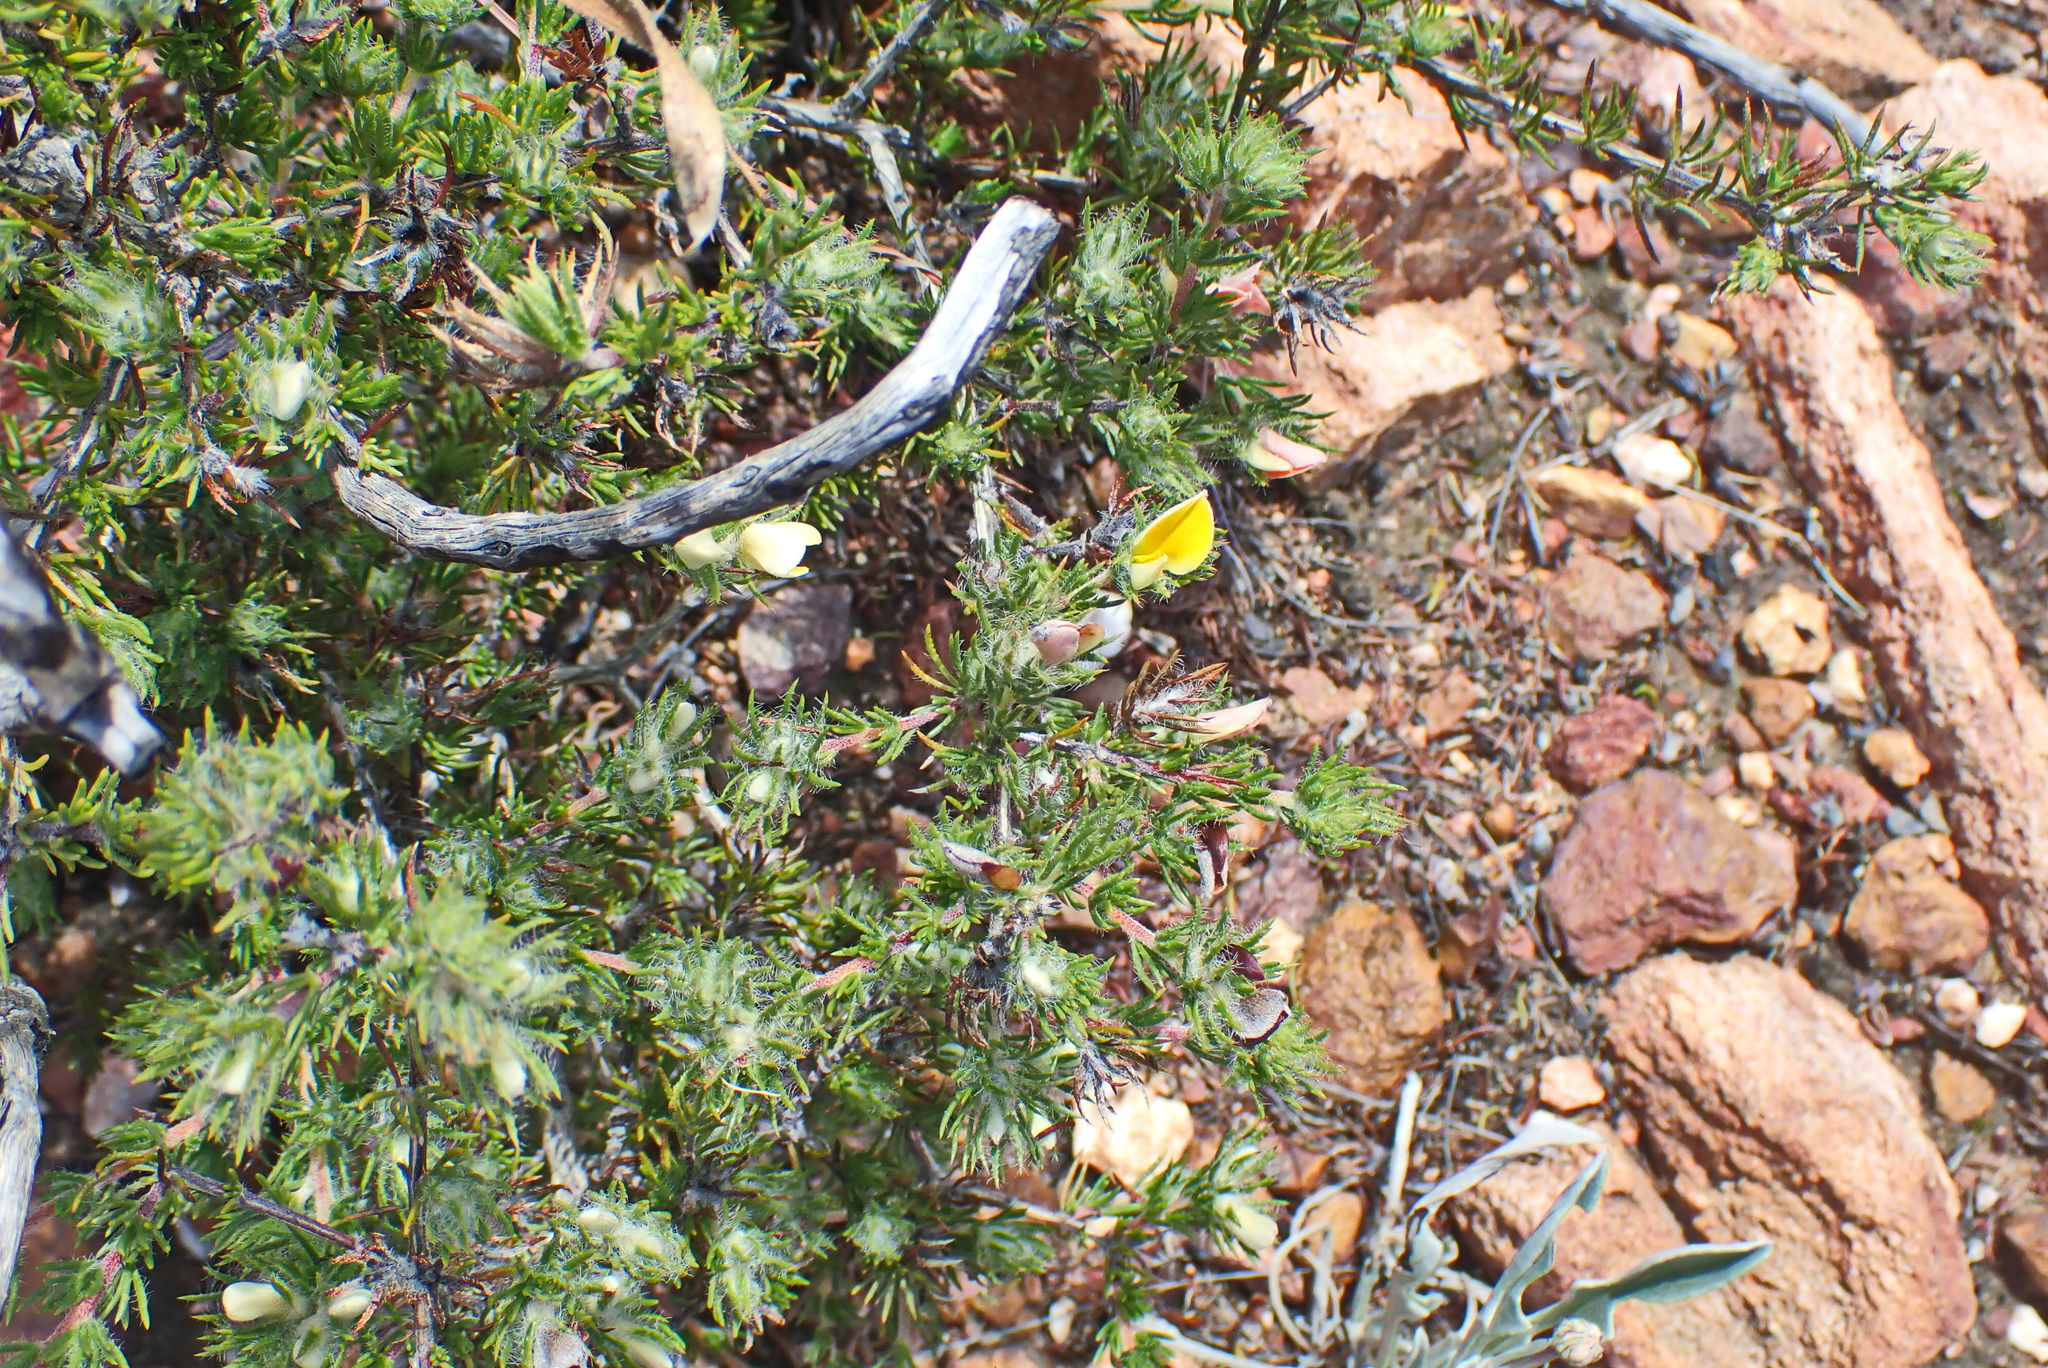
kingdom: Plantae
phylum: Tracheophyta
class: Magnoliopsida
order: Fabales
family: Fabaceae
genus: Aspalathus
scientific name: Aspalathus ciliaris
